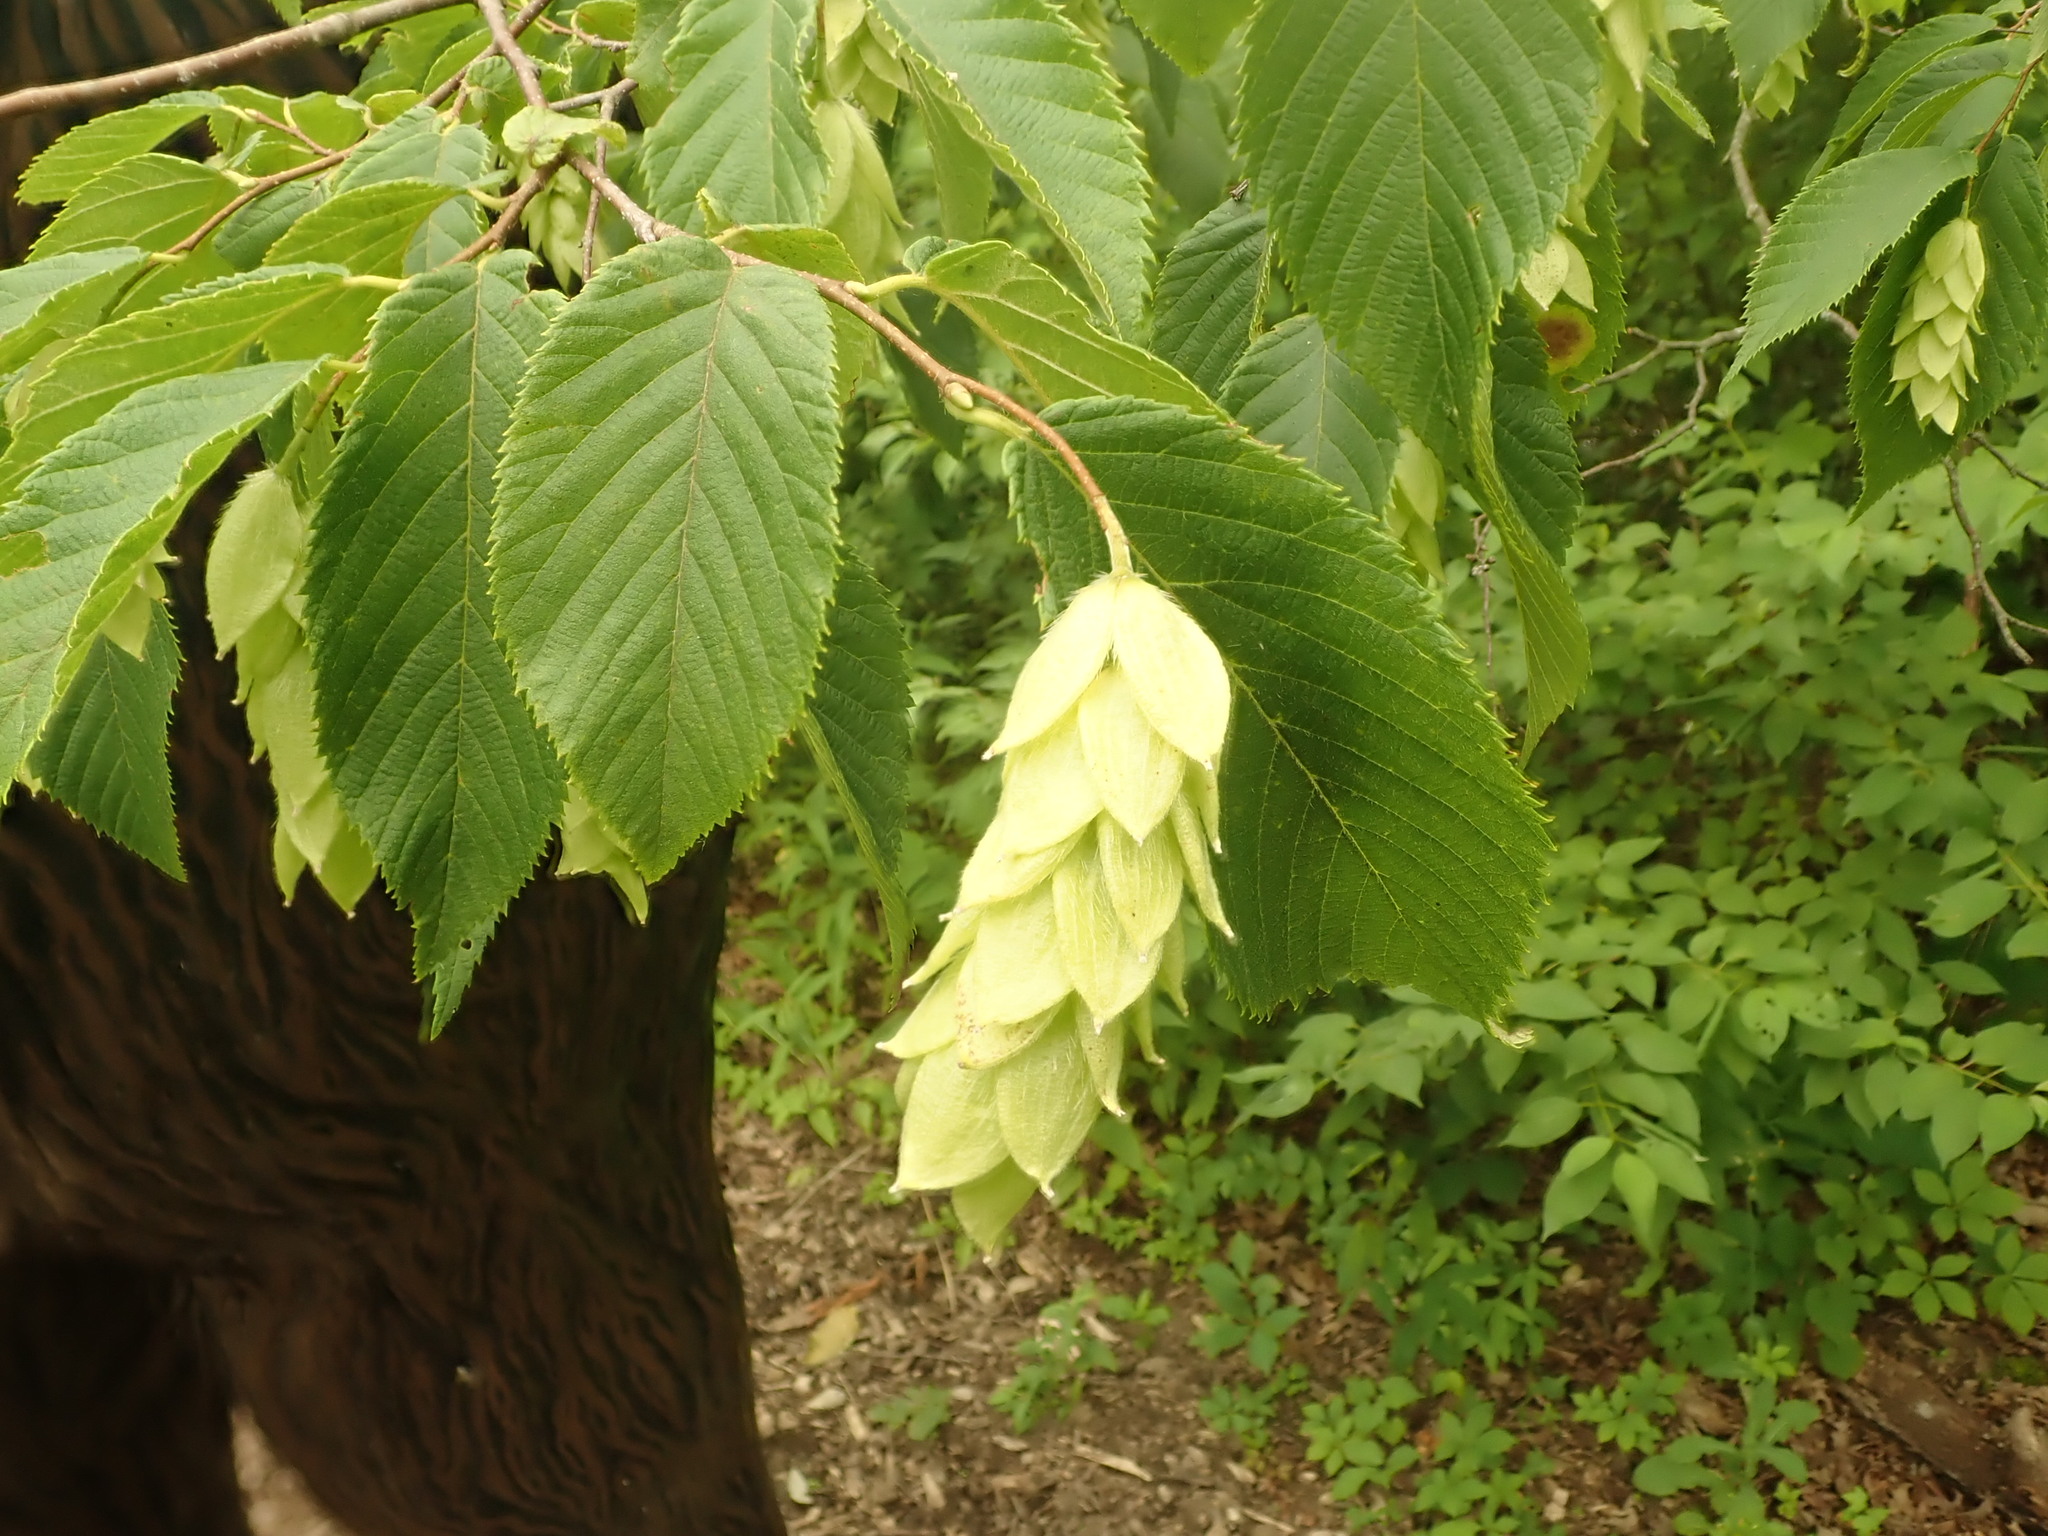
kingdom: Plantae
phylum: Tracheophyta
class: Magnoliopsida
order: Fagales
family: Betulaceae
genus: Ostrya
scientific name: Ostrya virginiana
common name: Ironwood
